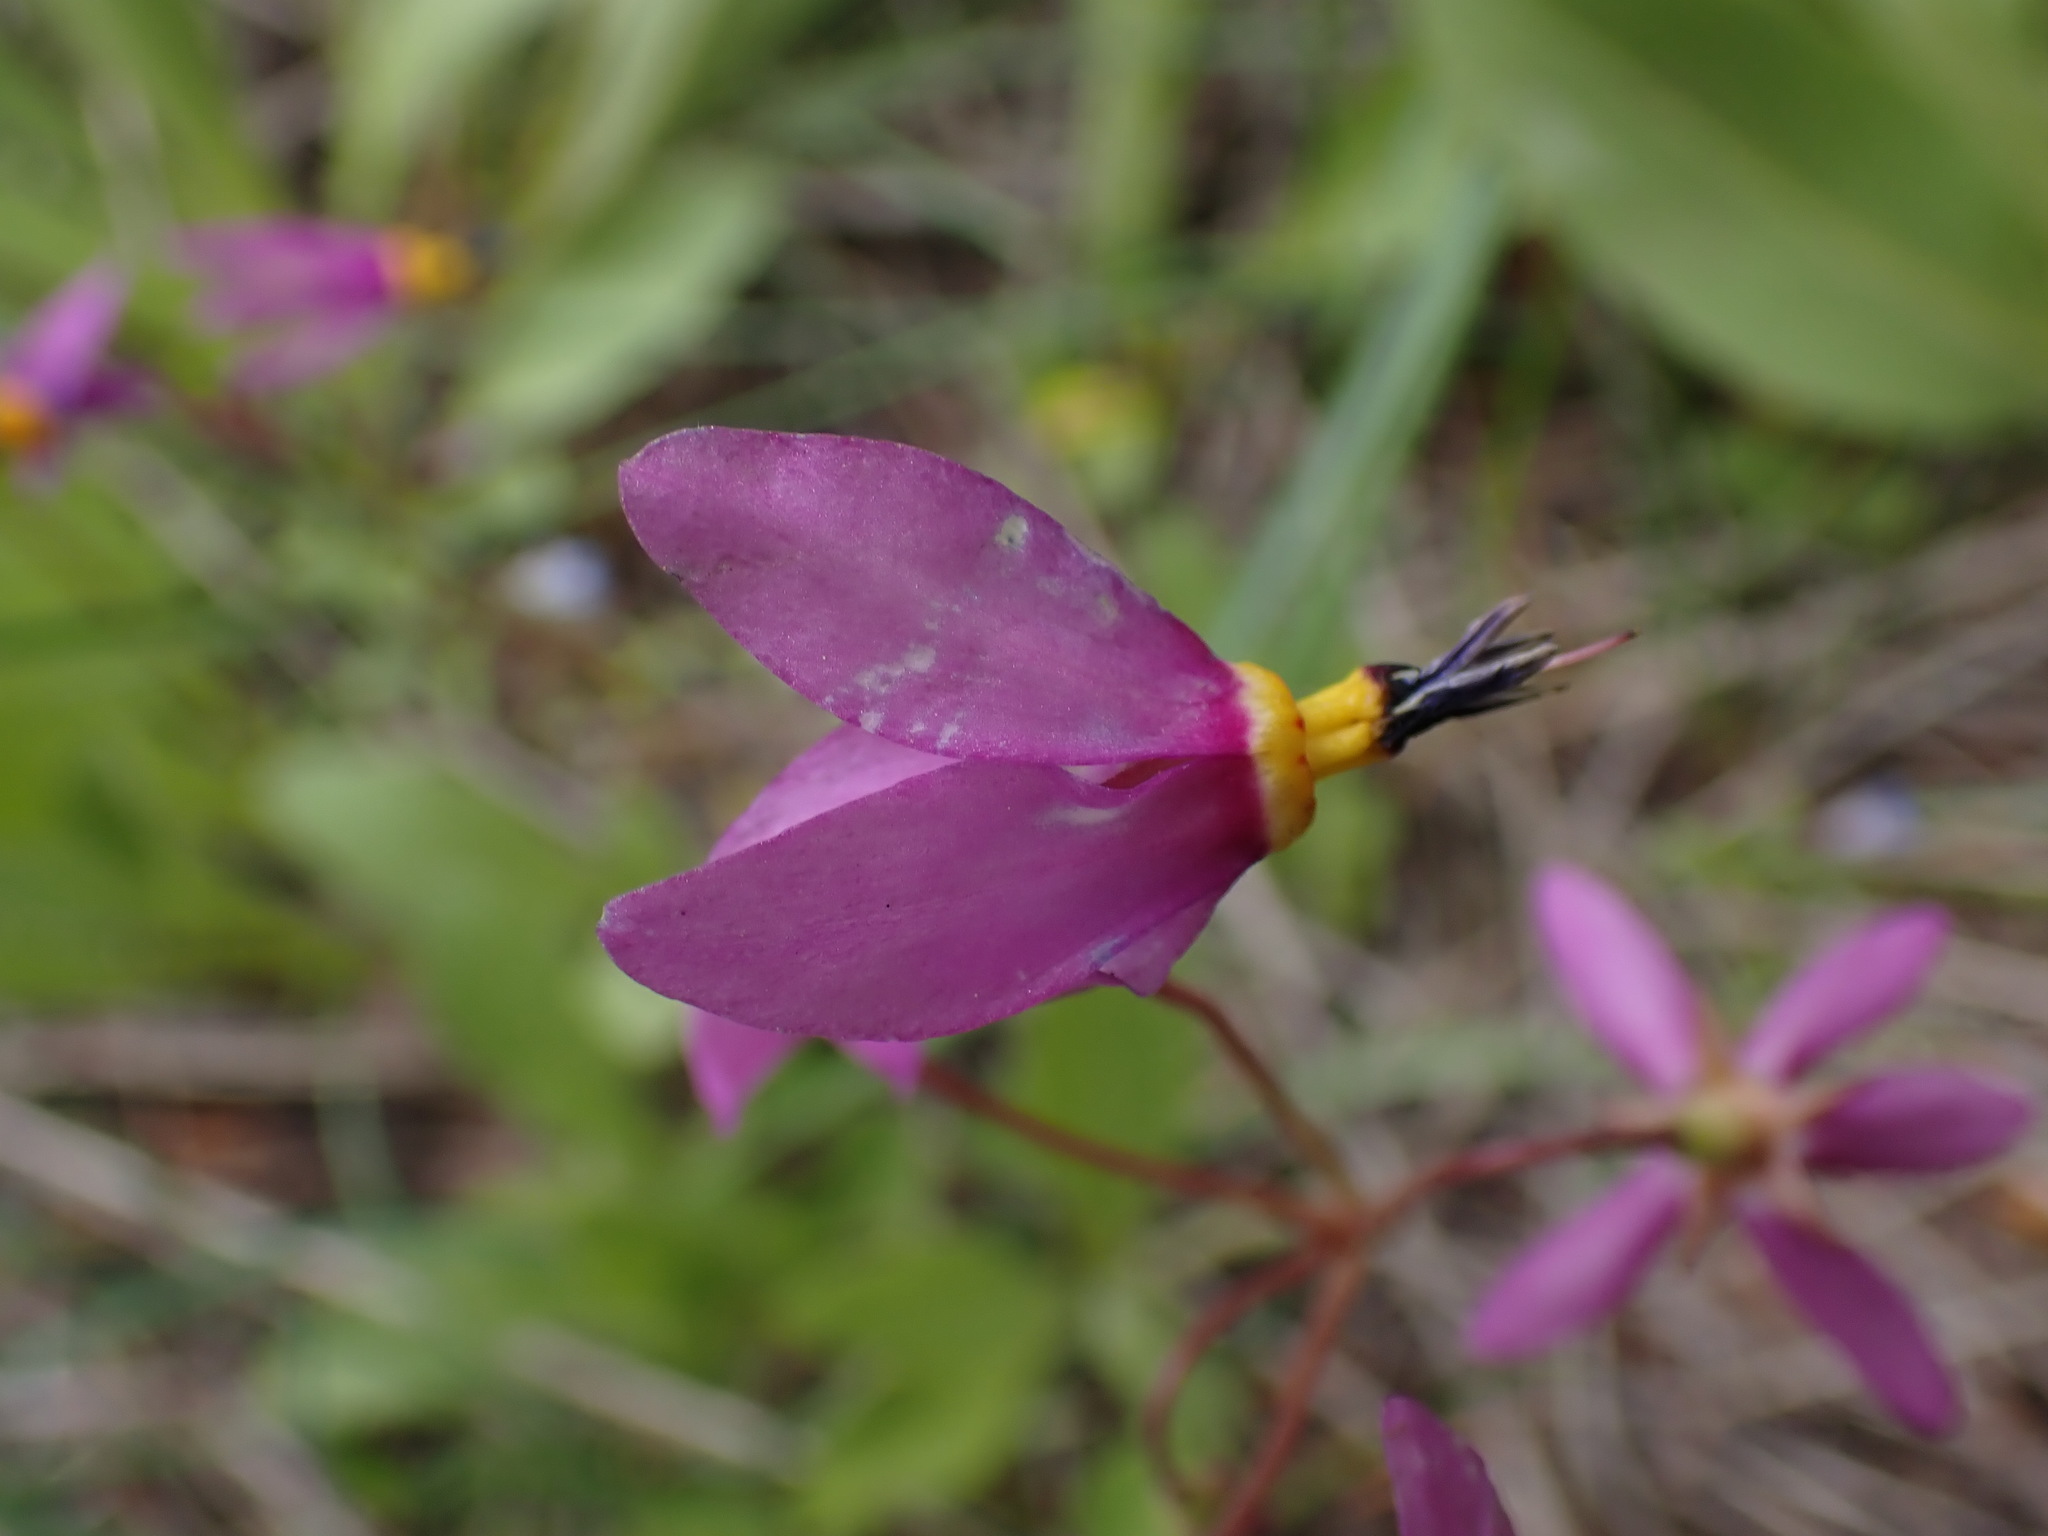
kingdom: Plantae
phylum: Tracheophyta
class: Magnoliopsida
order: Ericales
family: Primulaceae
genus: Dodecatheon
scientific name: Dodecatheon pulchellum
